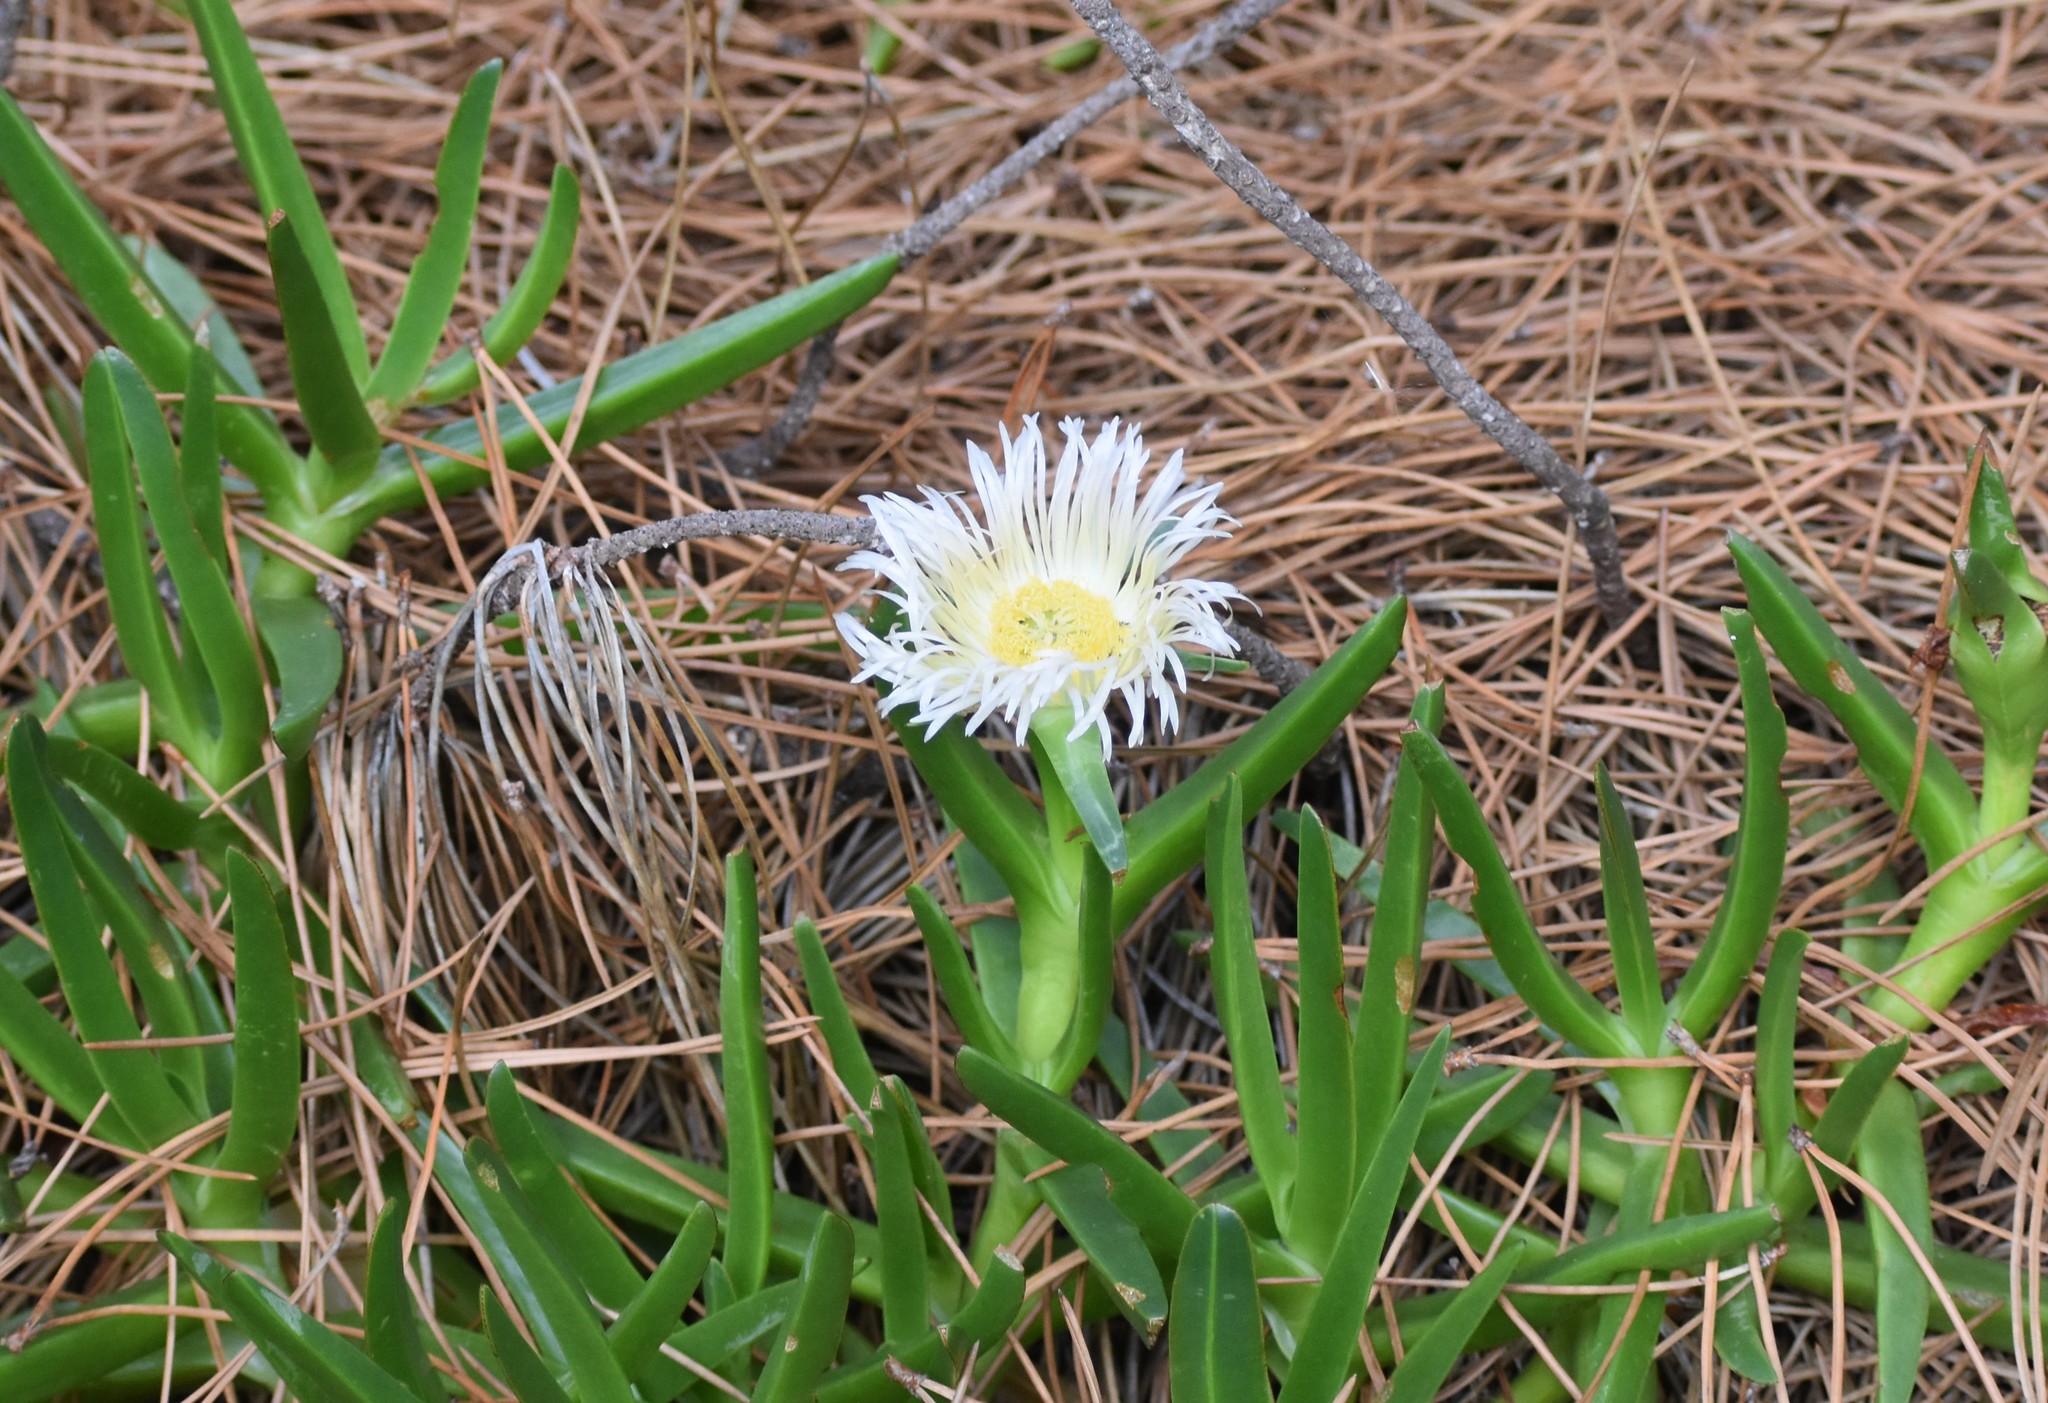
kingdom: Plantae
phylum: Tracheophyta
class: Magnoliopsida
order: Caryophyllales
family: Aizoaceae
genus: Carpobrotus
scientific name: Carpobrotus edulis
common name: Hottentot-fig
